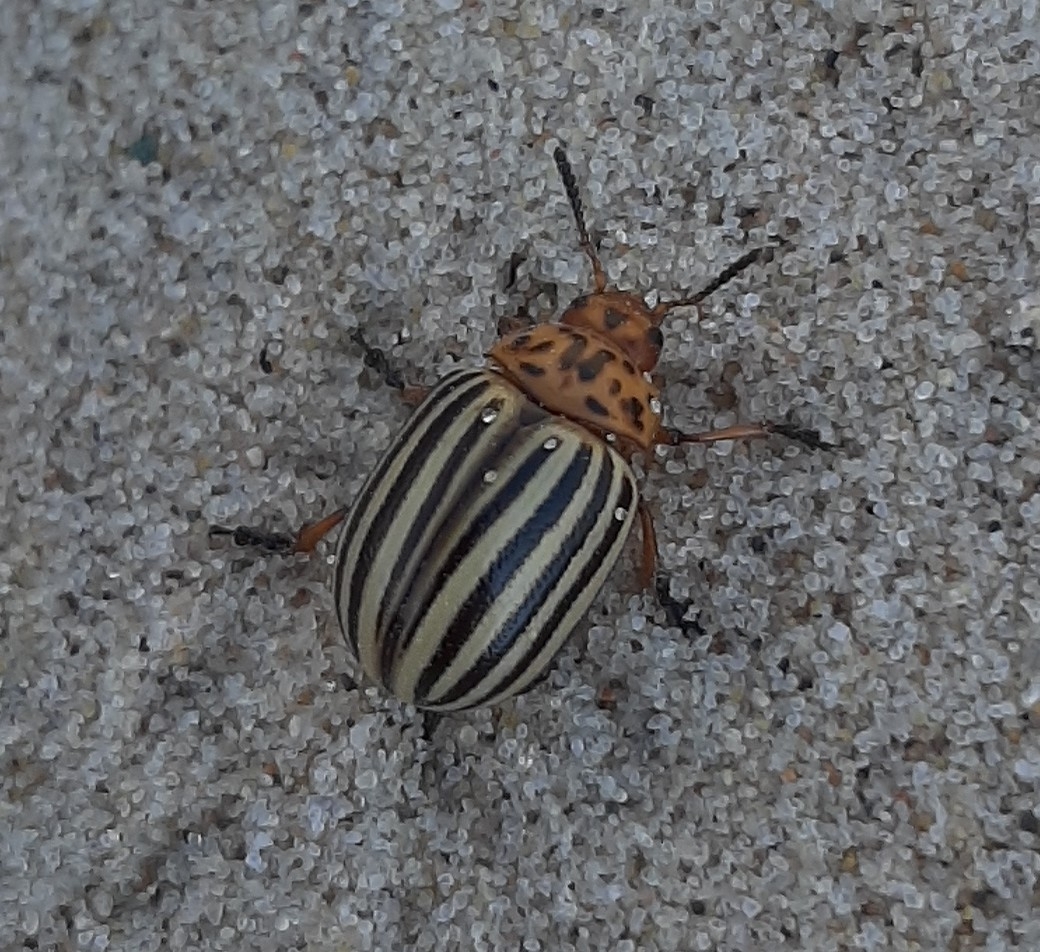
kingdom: Animalia
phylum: Arthropoda
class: Insecta
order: Coleoptera
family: Chrysomelidae
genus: Leptinotarsa
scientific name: Leptinotarsa decemlineata
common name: Colorado potato beetle
